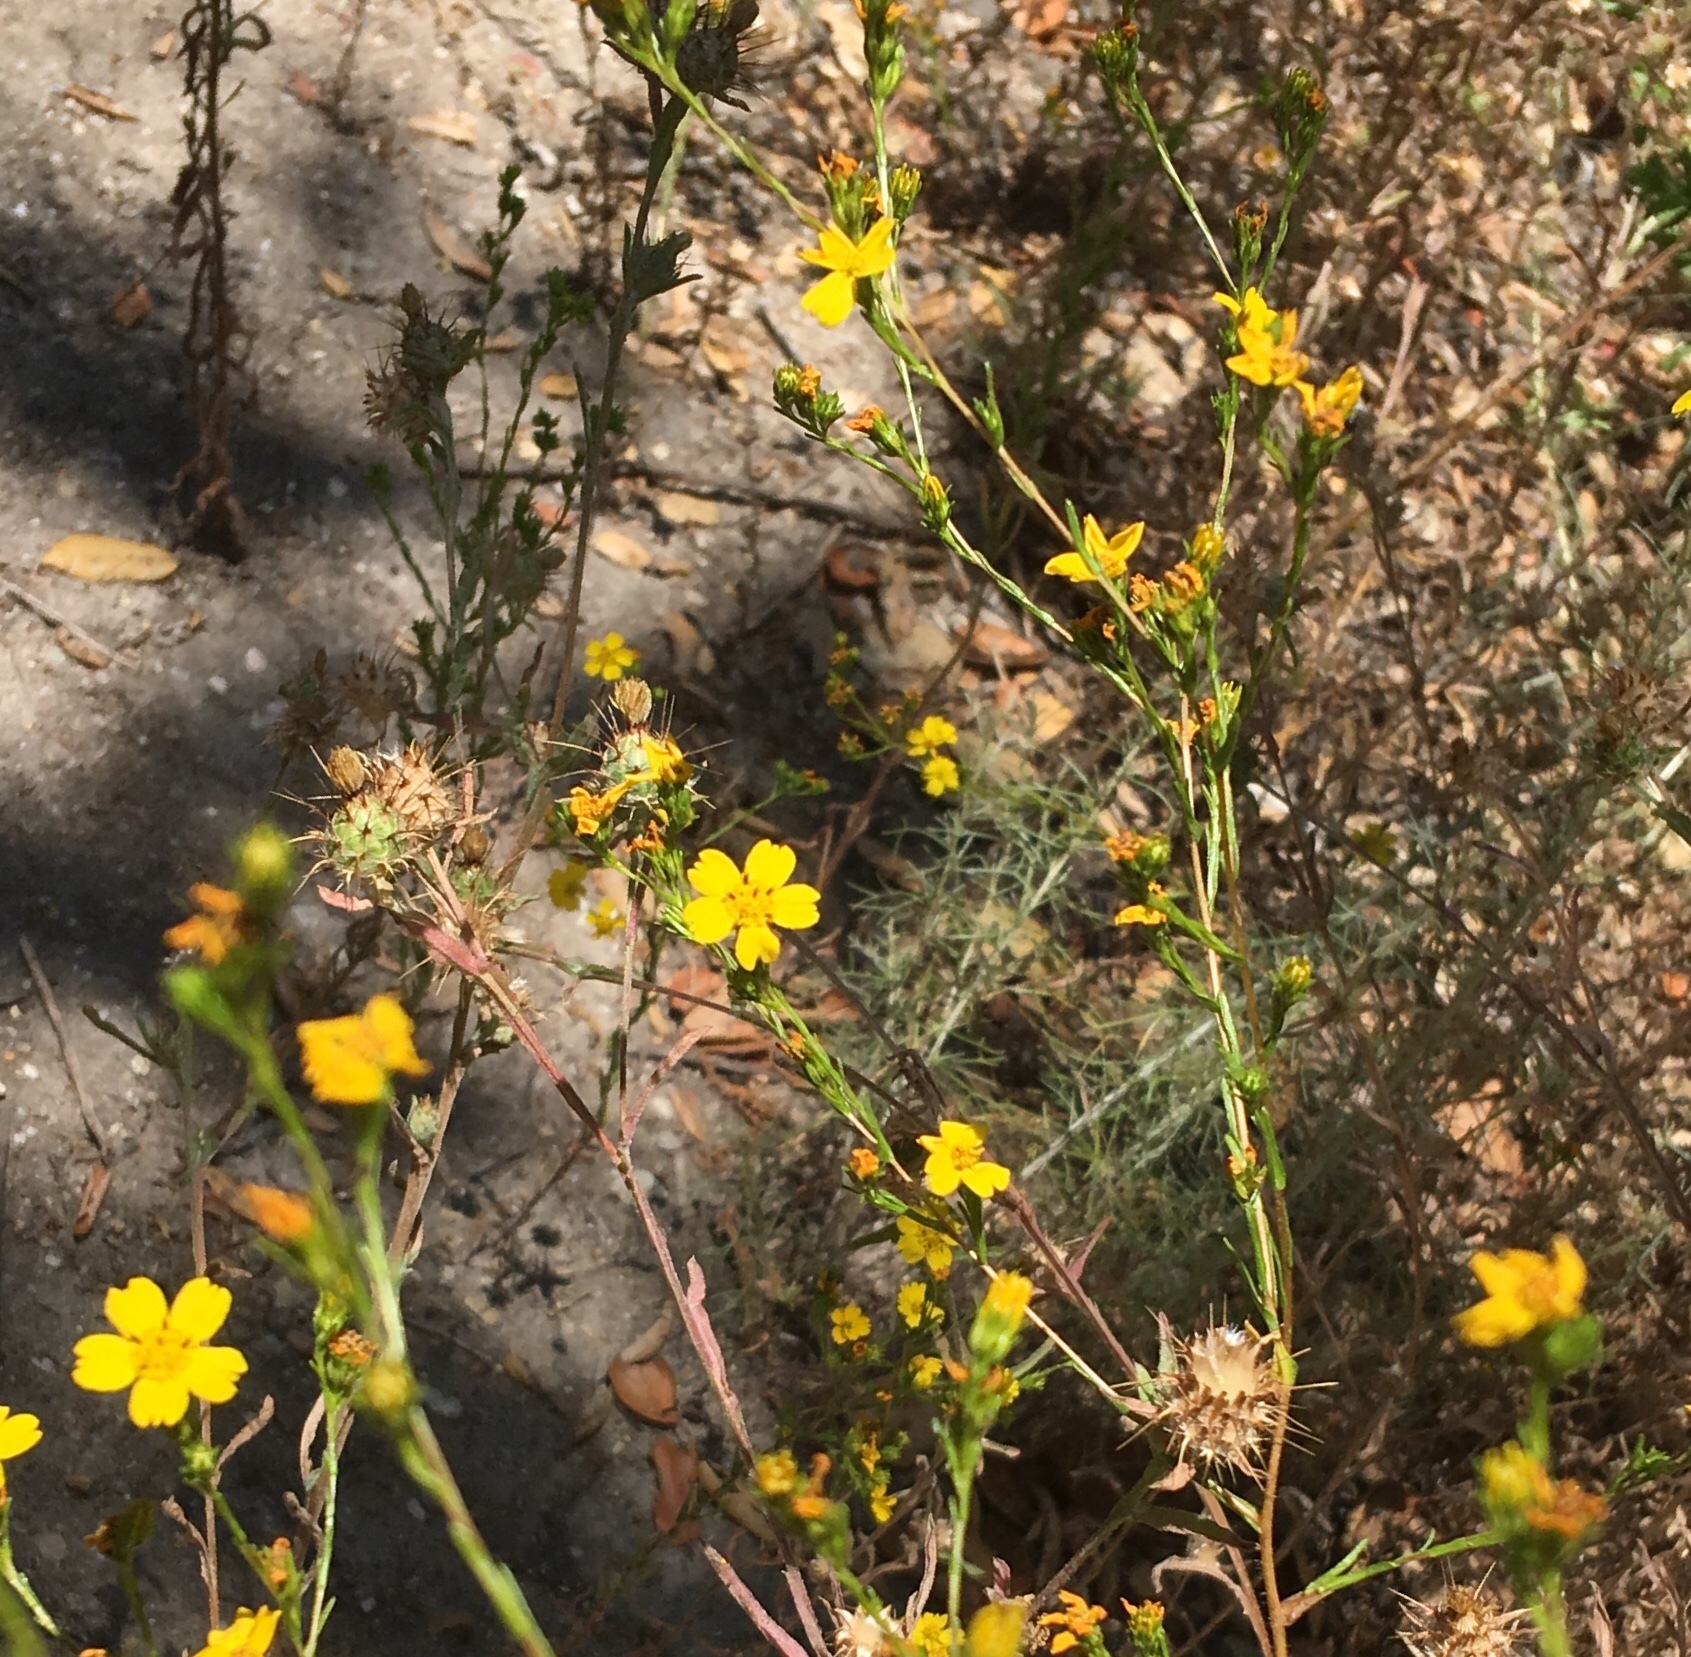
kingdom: Plantae
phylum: Tracheophyta
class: Magnoliopsida
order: Asterales
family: Asteraceae
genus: Deinandra
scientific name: Deinandra fasciculata
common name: Clustered tarweed
